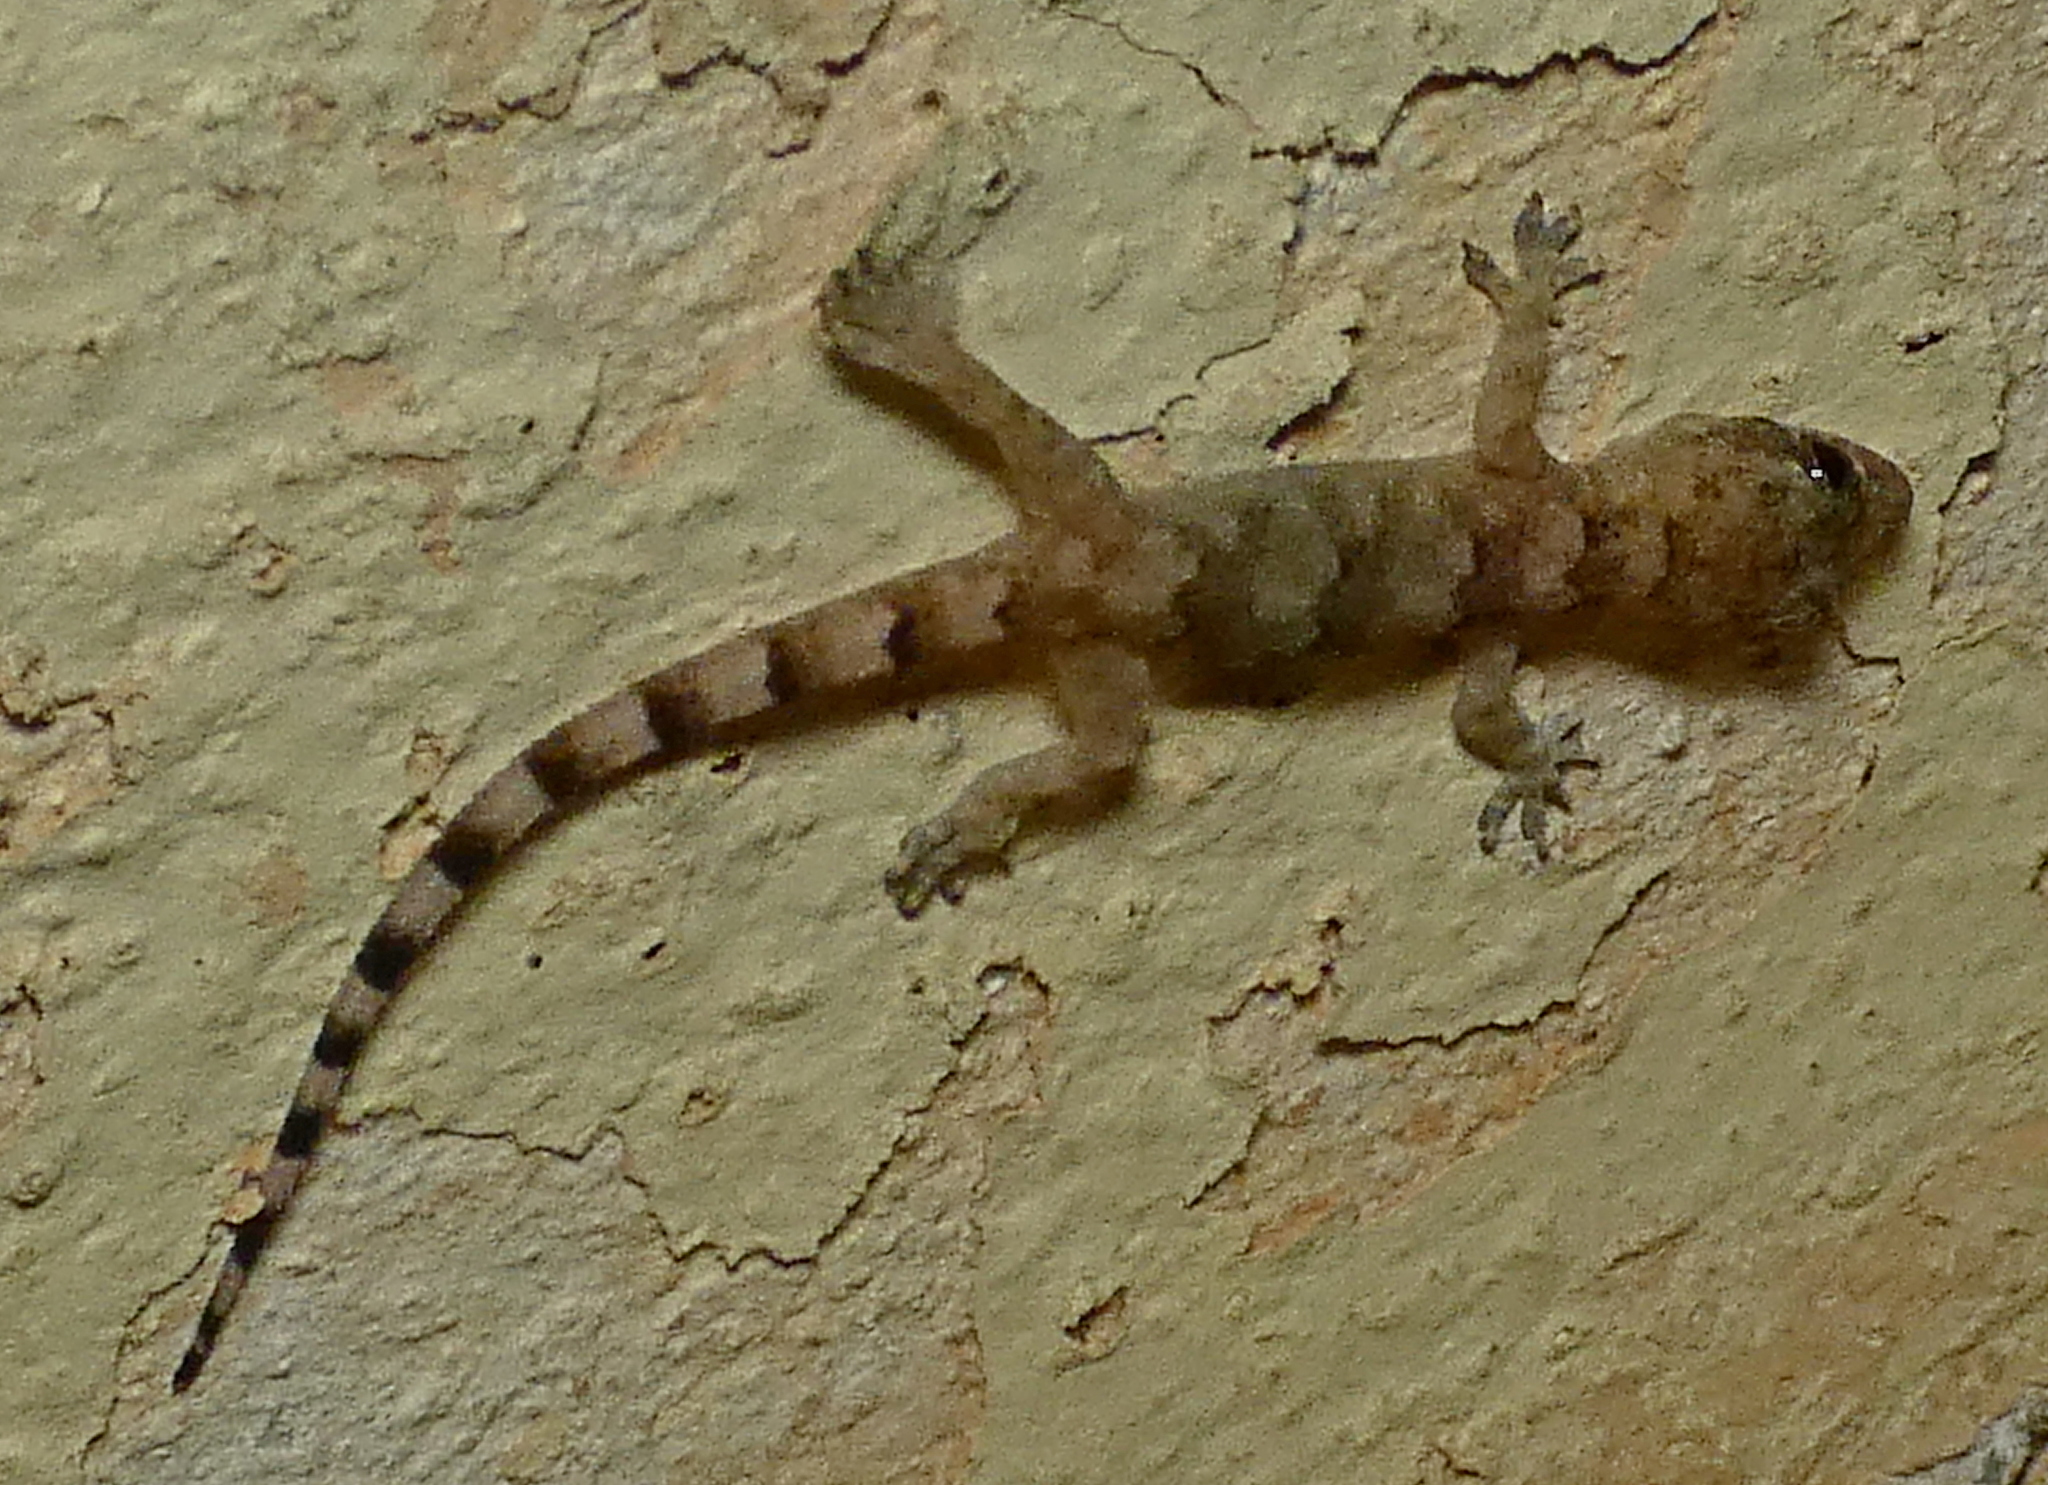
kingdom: Animalia
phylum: Chordata
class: Squamata
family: Gekkonidae
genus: Hemidactylus
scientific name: Hemidactylus mabouia
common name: House gecko
